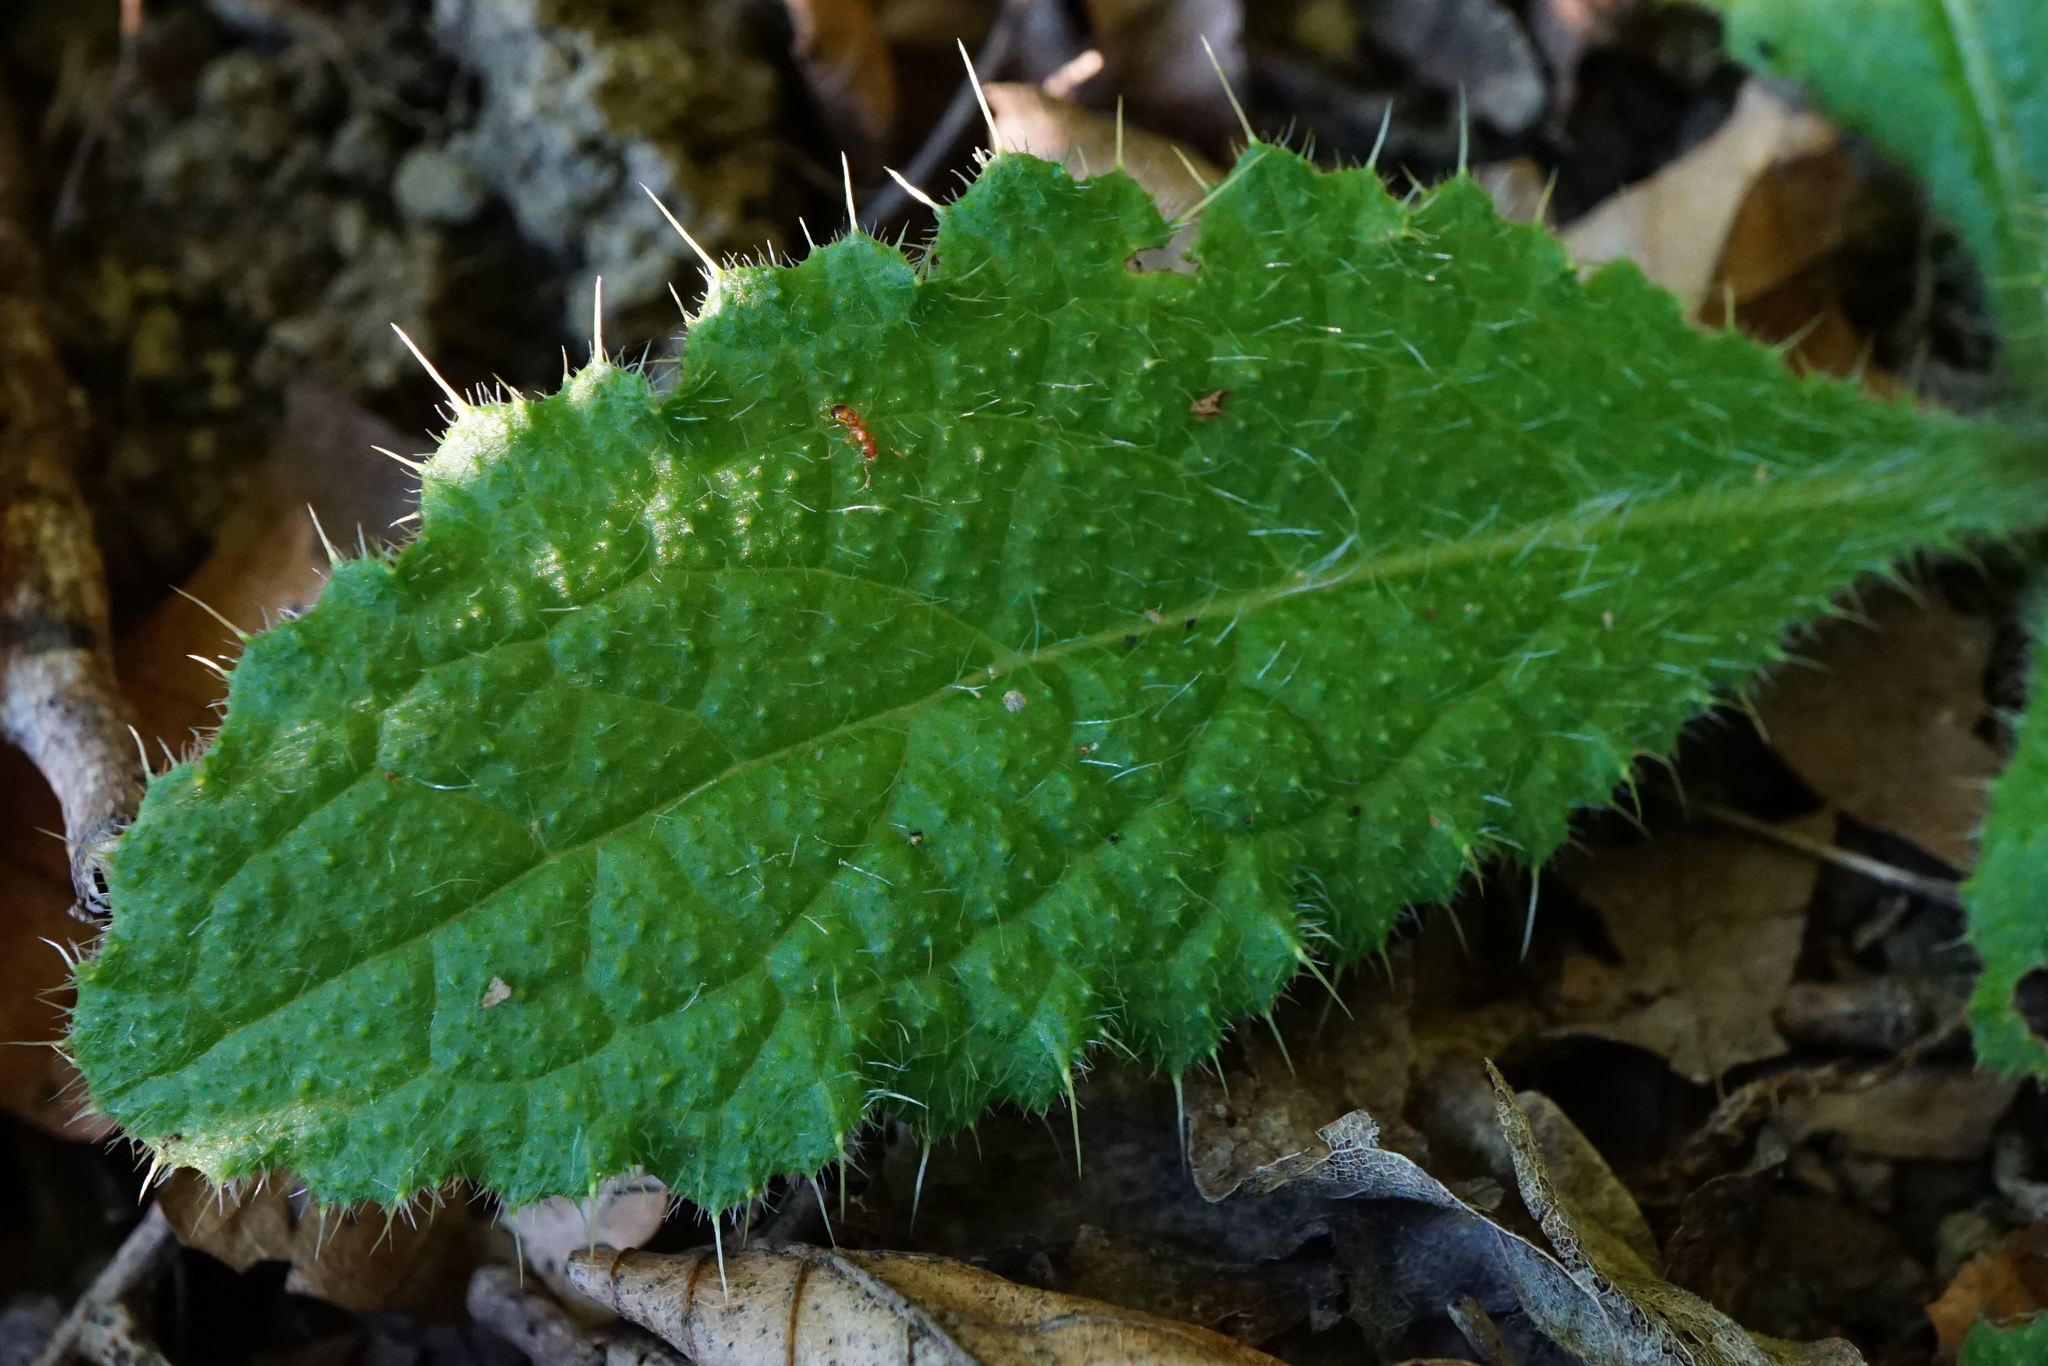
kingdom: Plantae
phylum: Tracheophyta
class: Magnoliopsida
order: Asterales
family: Asteraceae
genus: Cirsium
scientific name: Cirsium vulgare
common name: Bull thistle
